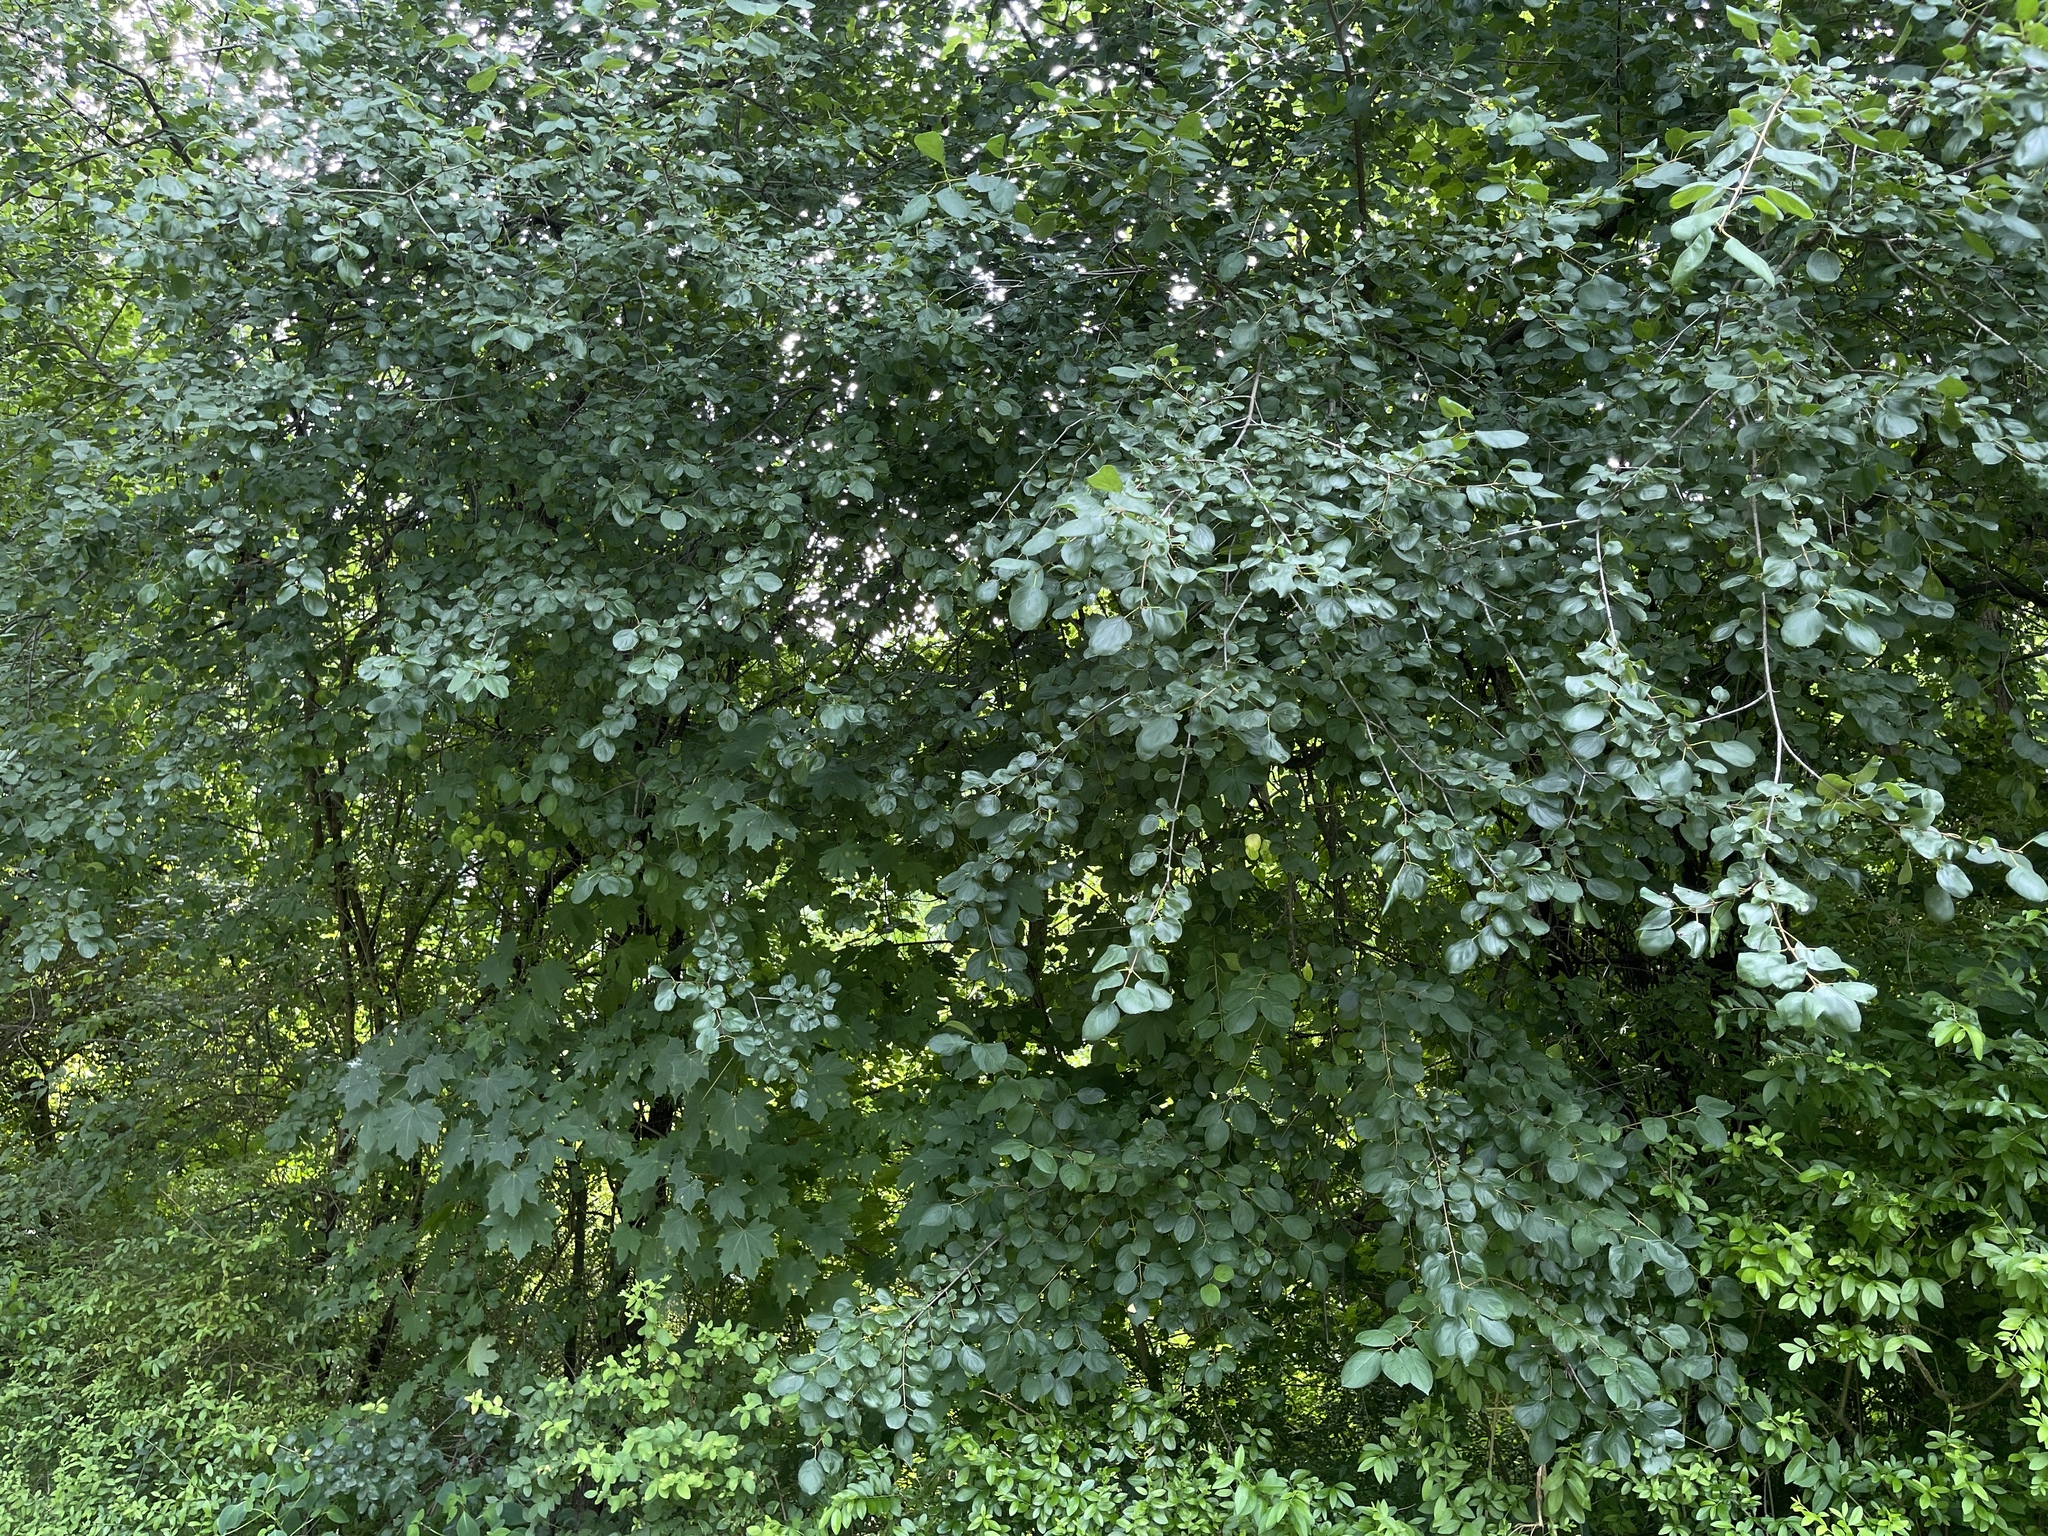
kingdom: Plantae
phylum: Tracheophyta
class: Magnoliopsida
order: Rosales
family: Rhamnaceae
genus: Rhamnus
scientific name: Rhamnus cathartica
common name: Common buckthorn
